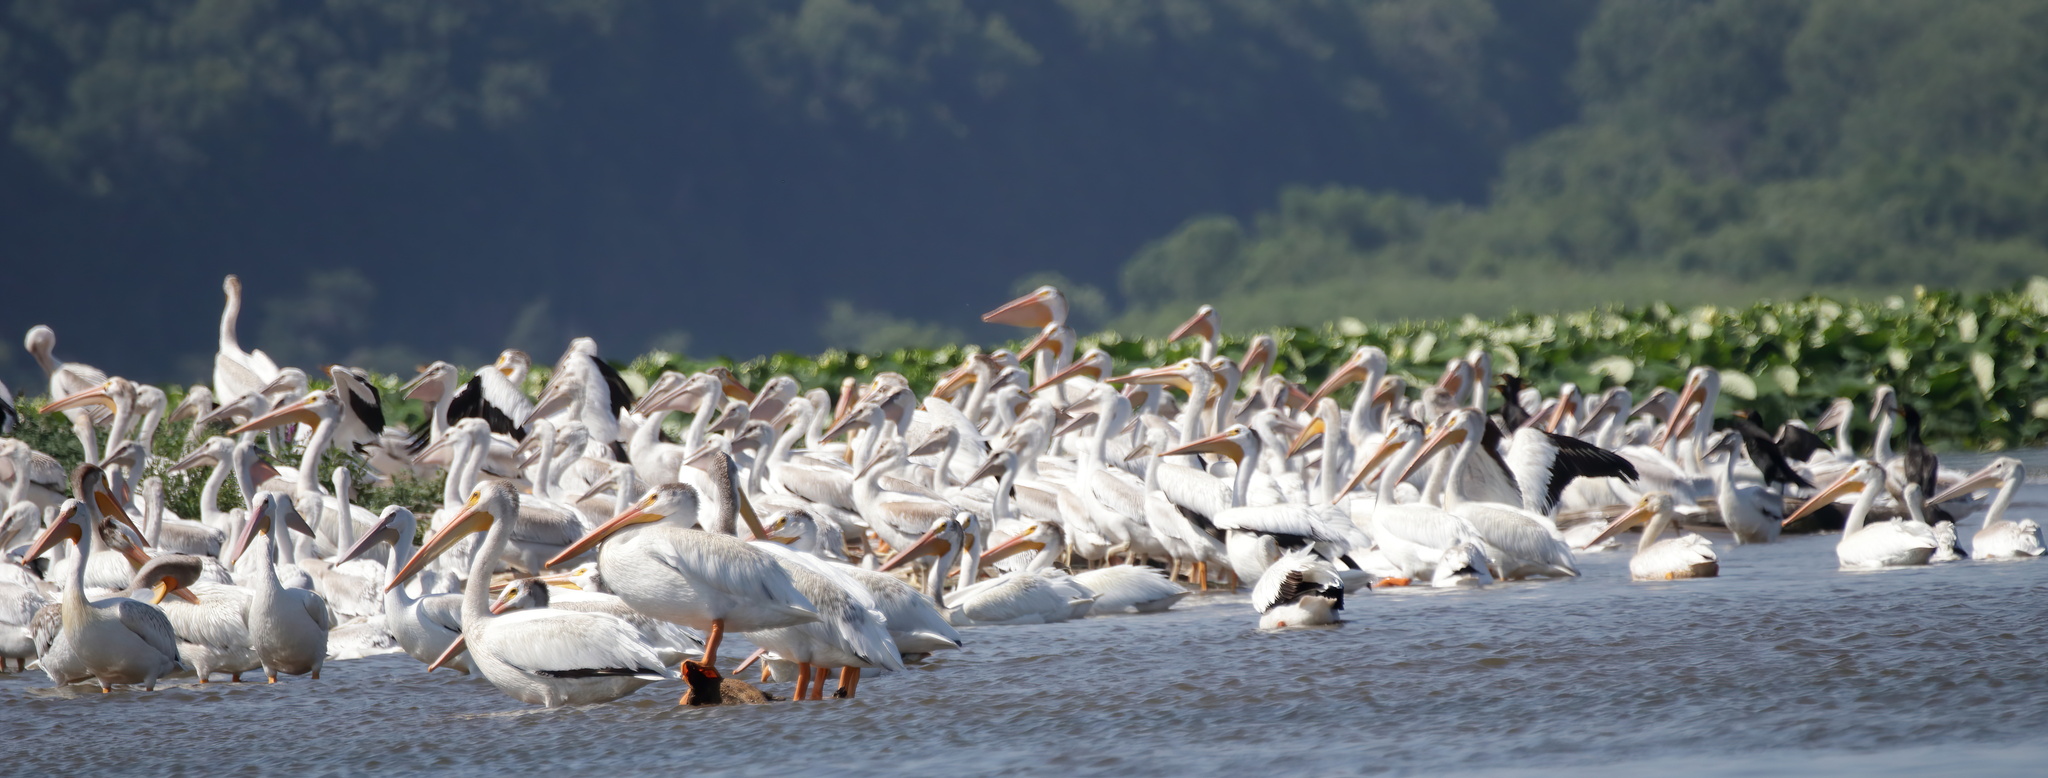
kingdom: Animalia
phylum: Chordata
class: Aves
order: Pelecaniformes
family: Pelecanidae
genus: Pelecanus
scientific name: Pelecanus erythrorhynchos
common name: American white pelican
